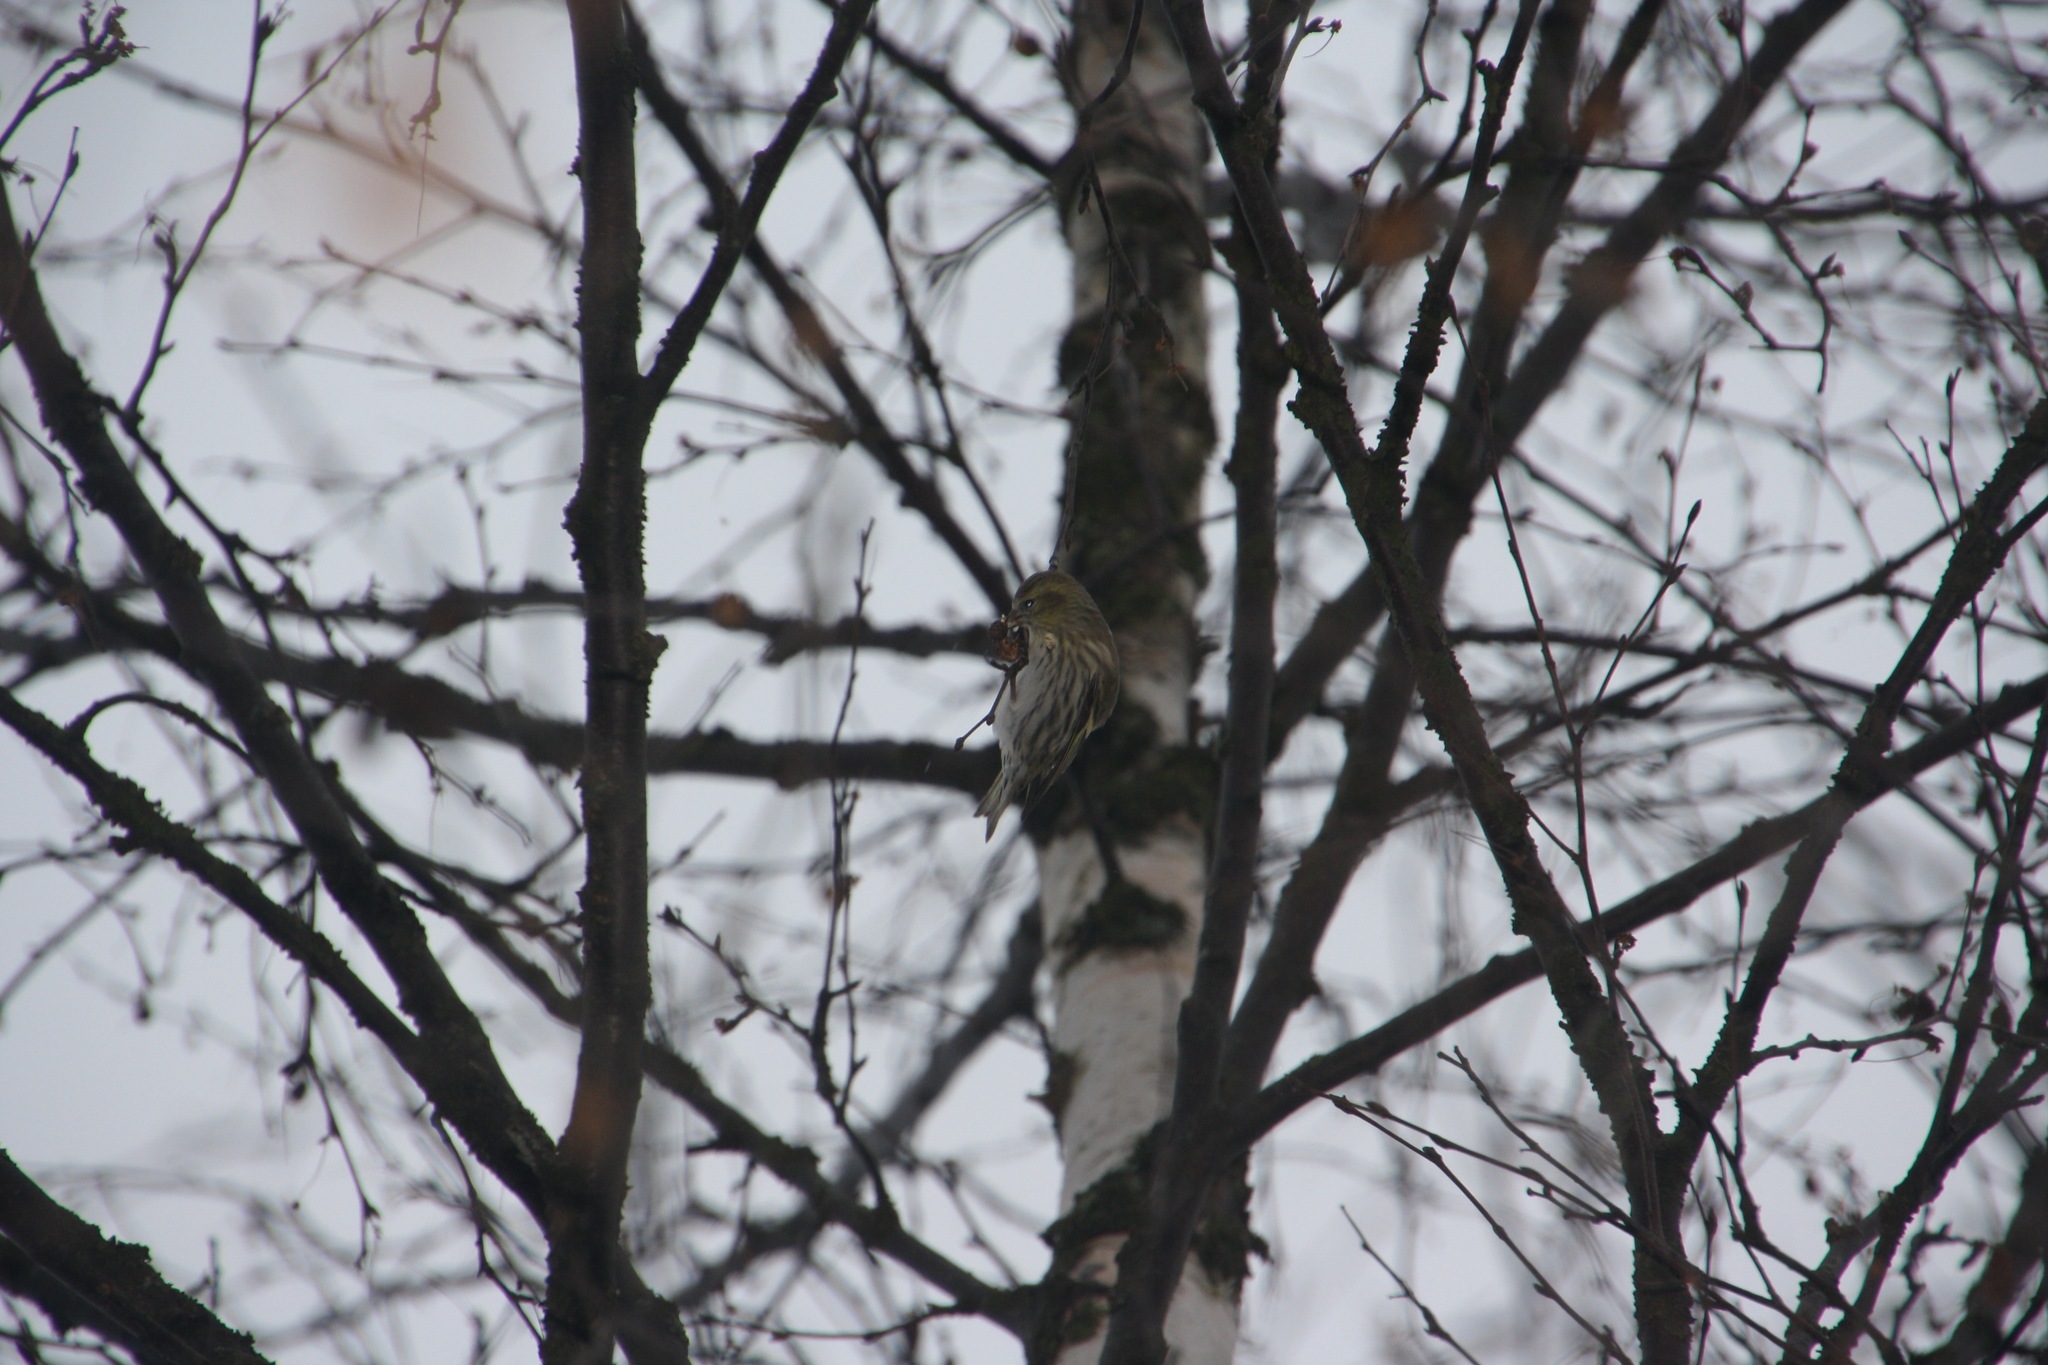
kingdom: Animalia
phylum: Chordata
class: Aves
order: Passeriformes
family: Fringillidae
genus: Spinus
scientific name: Spinus spinus
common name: Eurasian siskin
